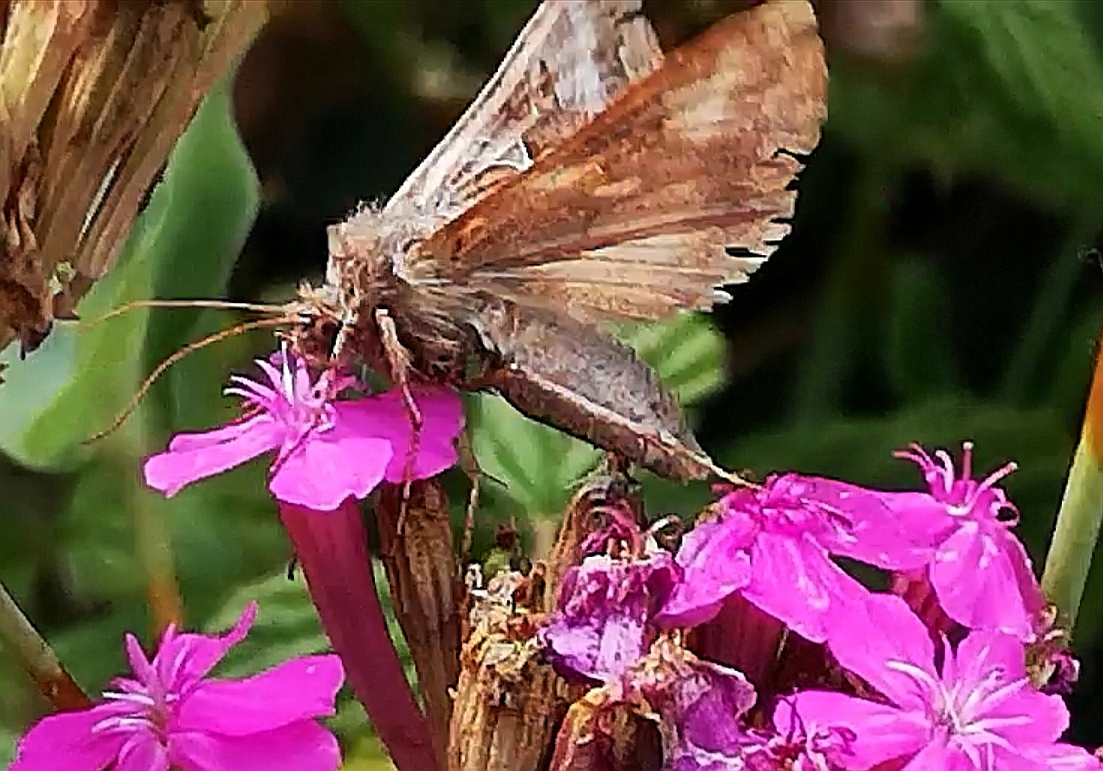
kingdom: Animalia
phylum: Arthropoda
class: Insecta
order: Lepidoptera
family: Noctuidae
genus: Autographa
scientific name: Autographa gamma
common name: Silver y
